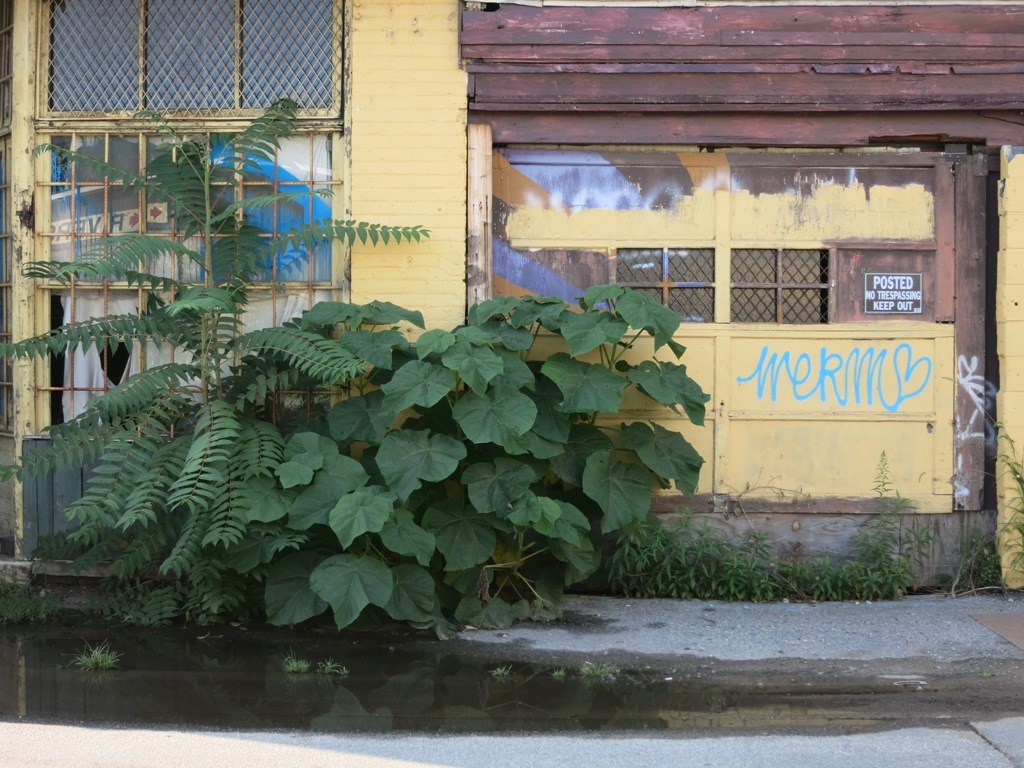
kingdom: Plantae
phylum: Tracheophyta
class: Magnoliopsida
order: Lamiales
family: Paulowniaceae
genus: Paulownia
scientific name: Paulownia tomentosa
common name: Foxglove-tree
